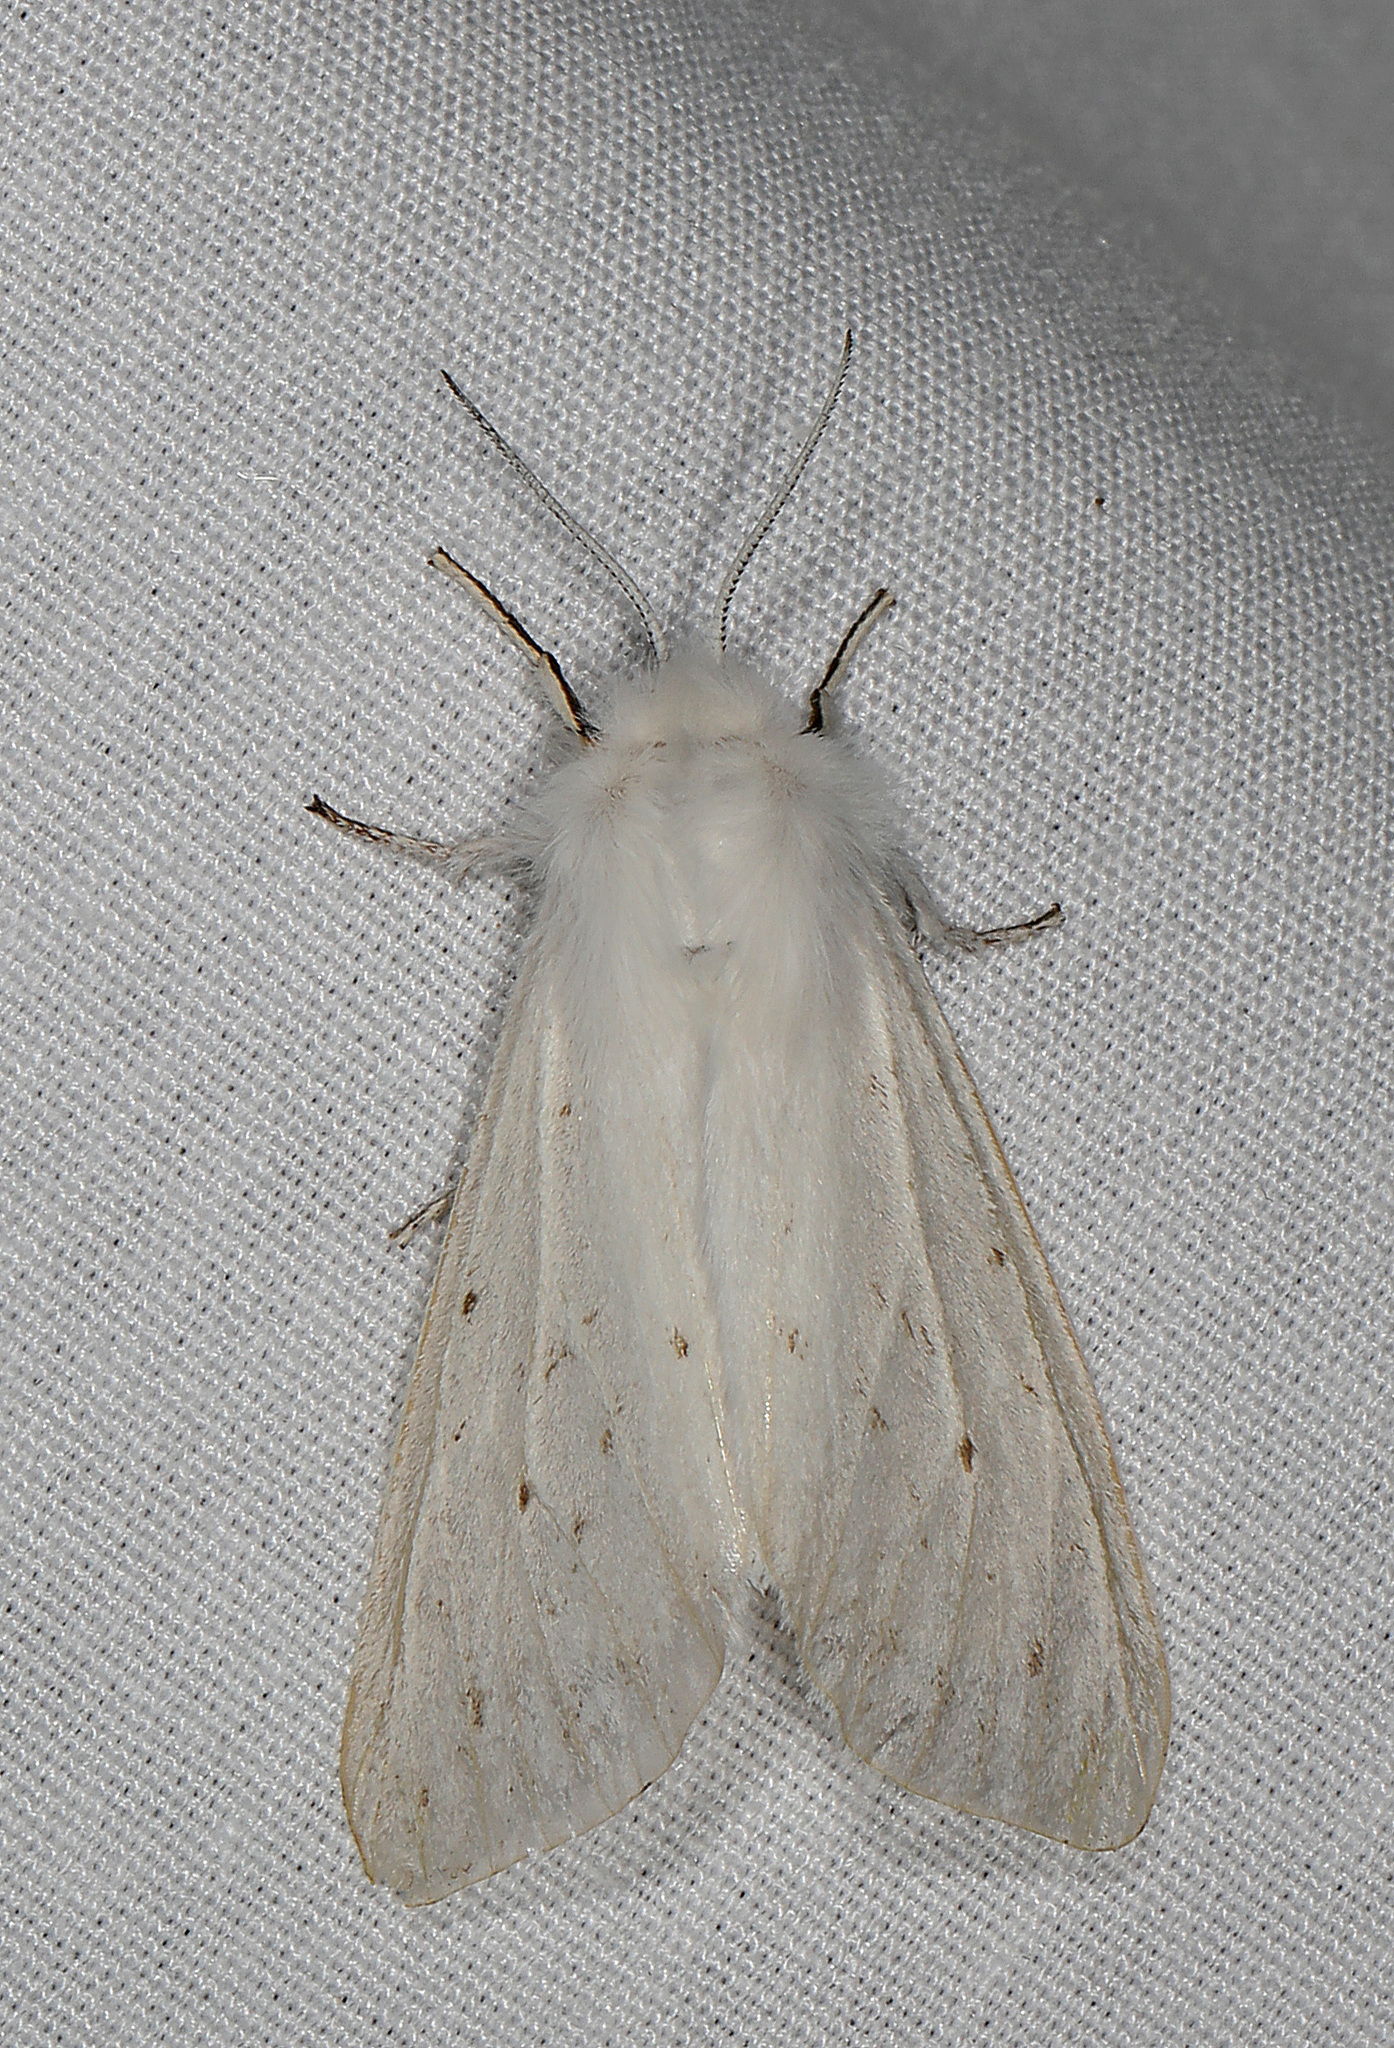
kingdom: Animalia
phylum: Arthropoda
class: Insecta
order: Lepidoptera
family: Erebidae
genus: Spilosoma
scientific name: Spilosoma congrua
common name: Agreeable tiger moth
